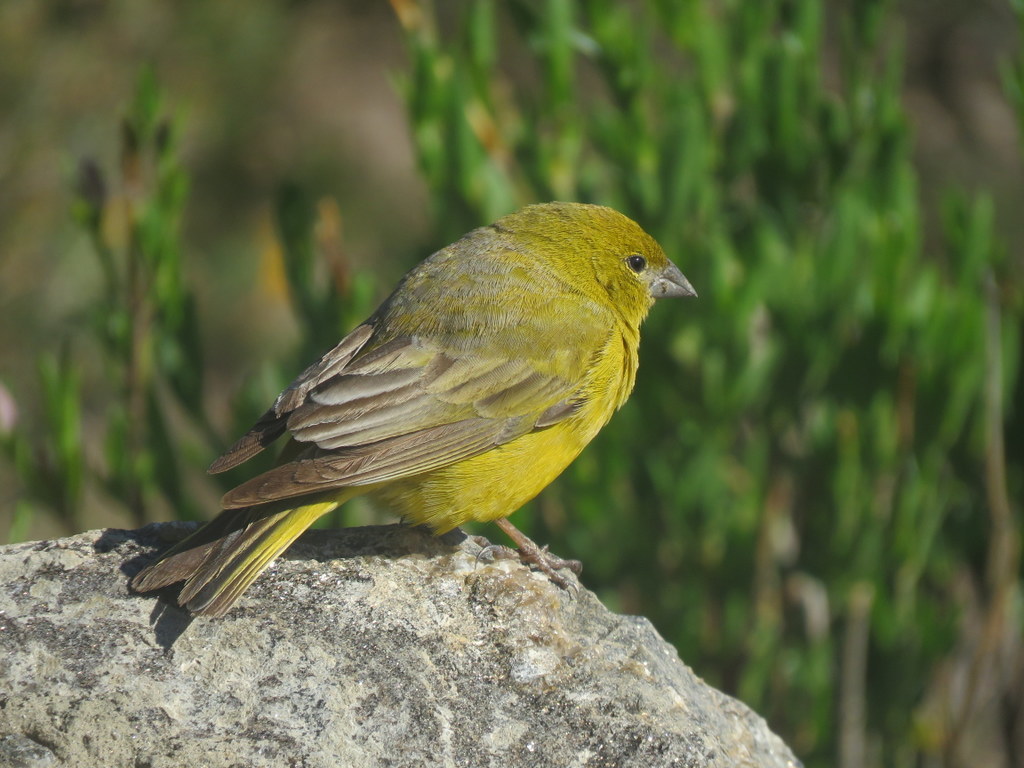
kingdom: Animalia
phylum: Chordata
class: Aves
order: Passeriformes
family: Thraupidae
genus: Sicalis
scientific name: Sicalis olivascens
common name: Greenish yellow finch
